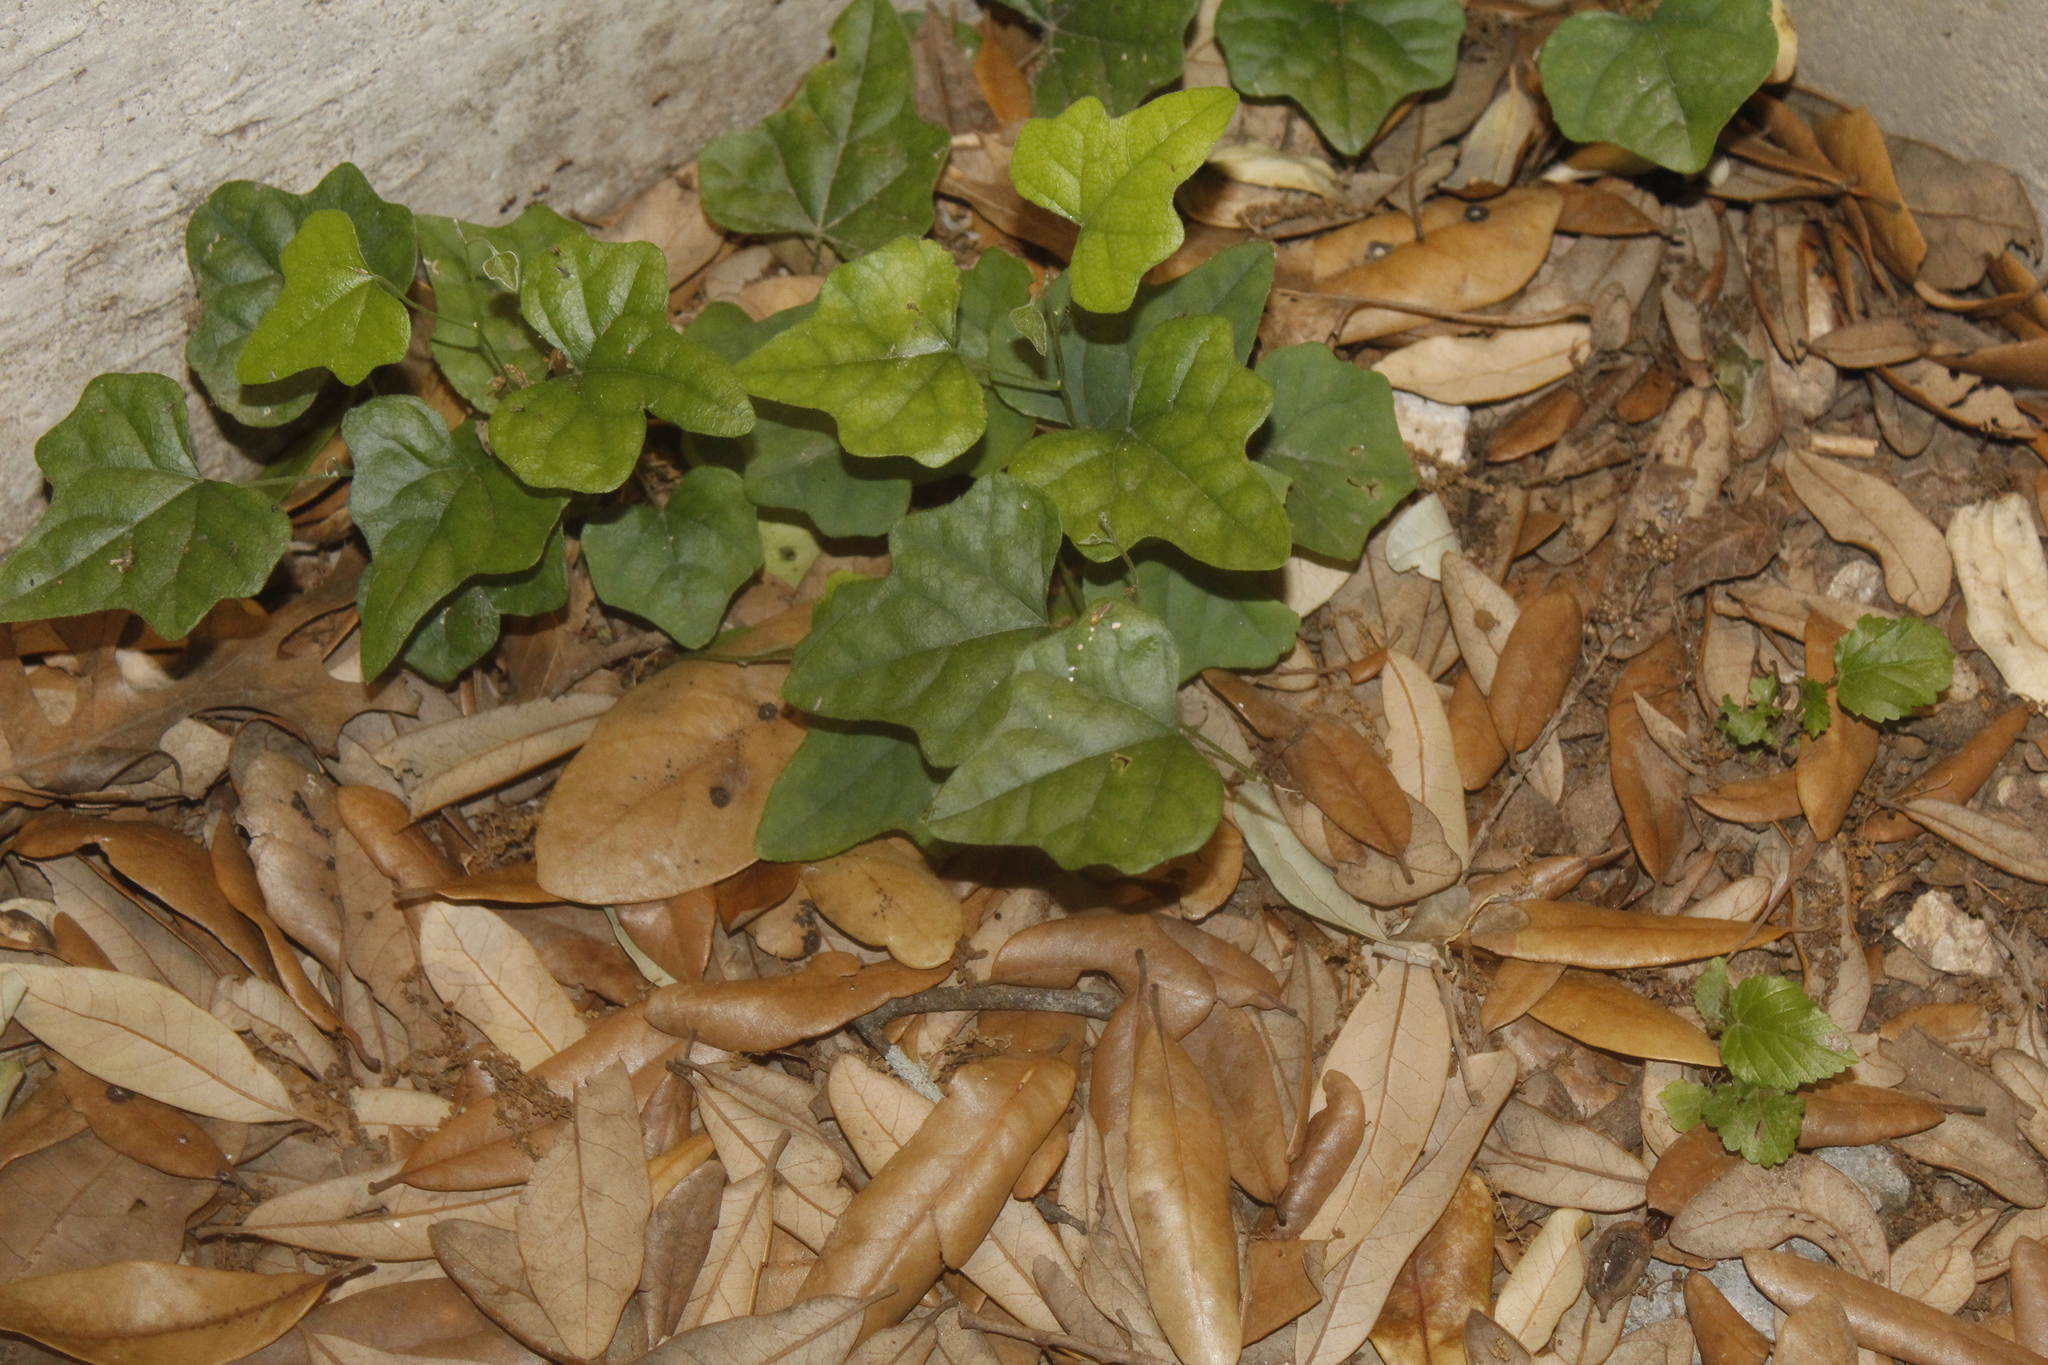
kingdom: Plantae
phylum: Tracheophyta
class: Magnoliopsida
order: Ranunculales
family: Menispermaceae
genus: Cocculus
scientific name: Cocculus carolinus
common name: Carolina moonseed
